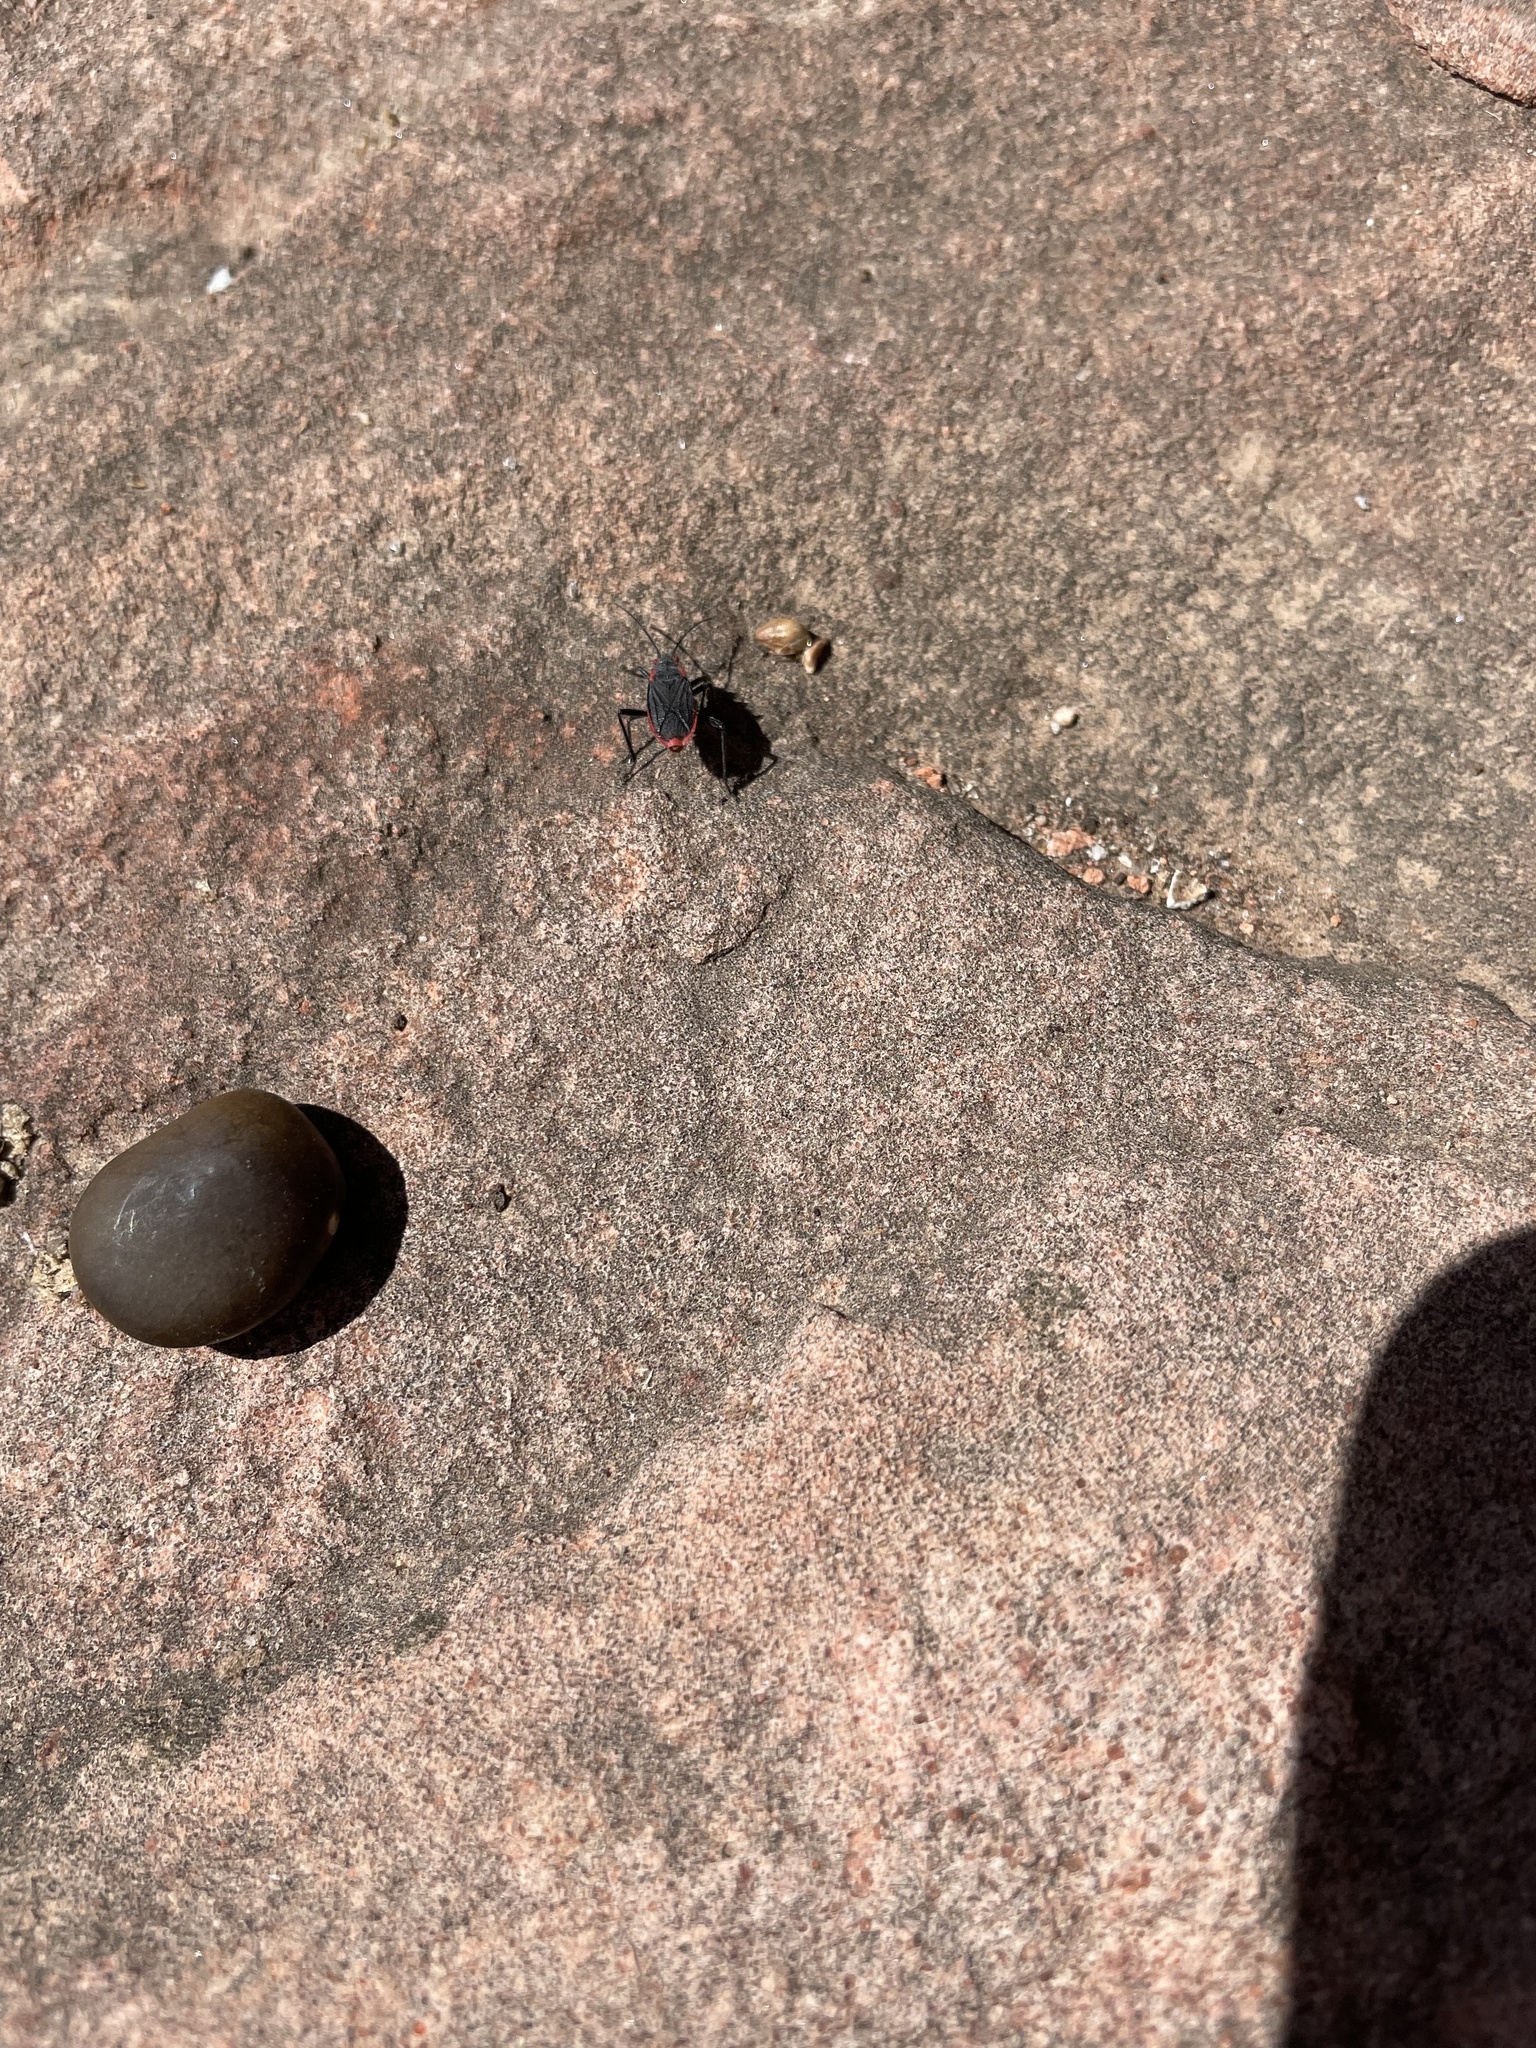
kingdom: Animalia
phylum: Arthropoda
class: Insecta
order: Hemiptera
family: Rhopalidae
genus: Jadera
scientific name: Jadera haematoloma
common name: Red-shouldered bug
